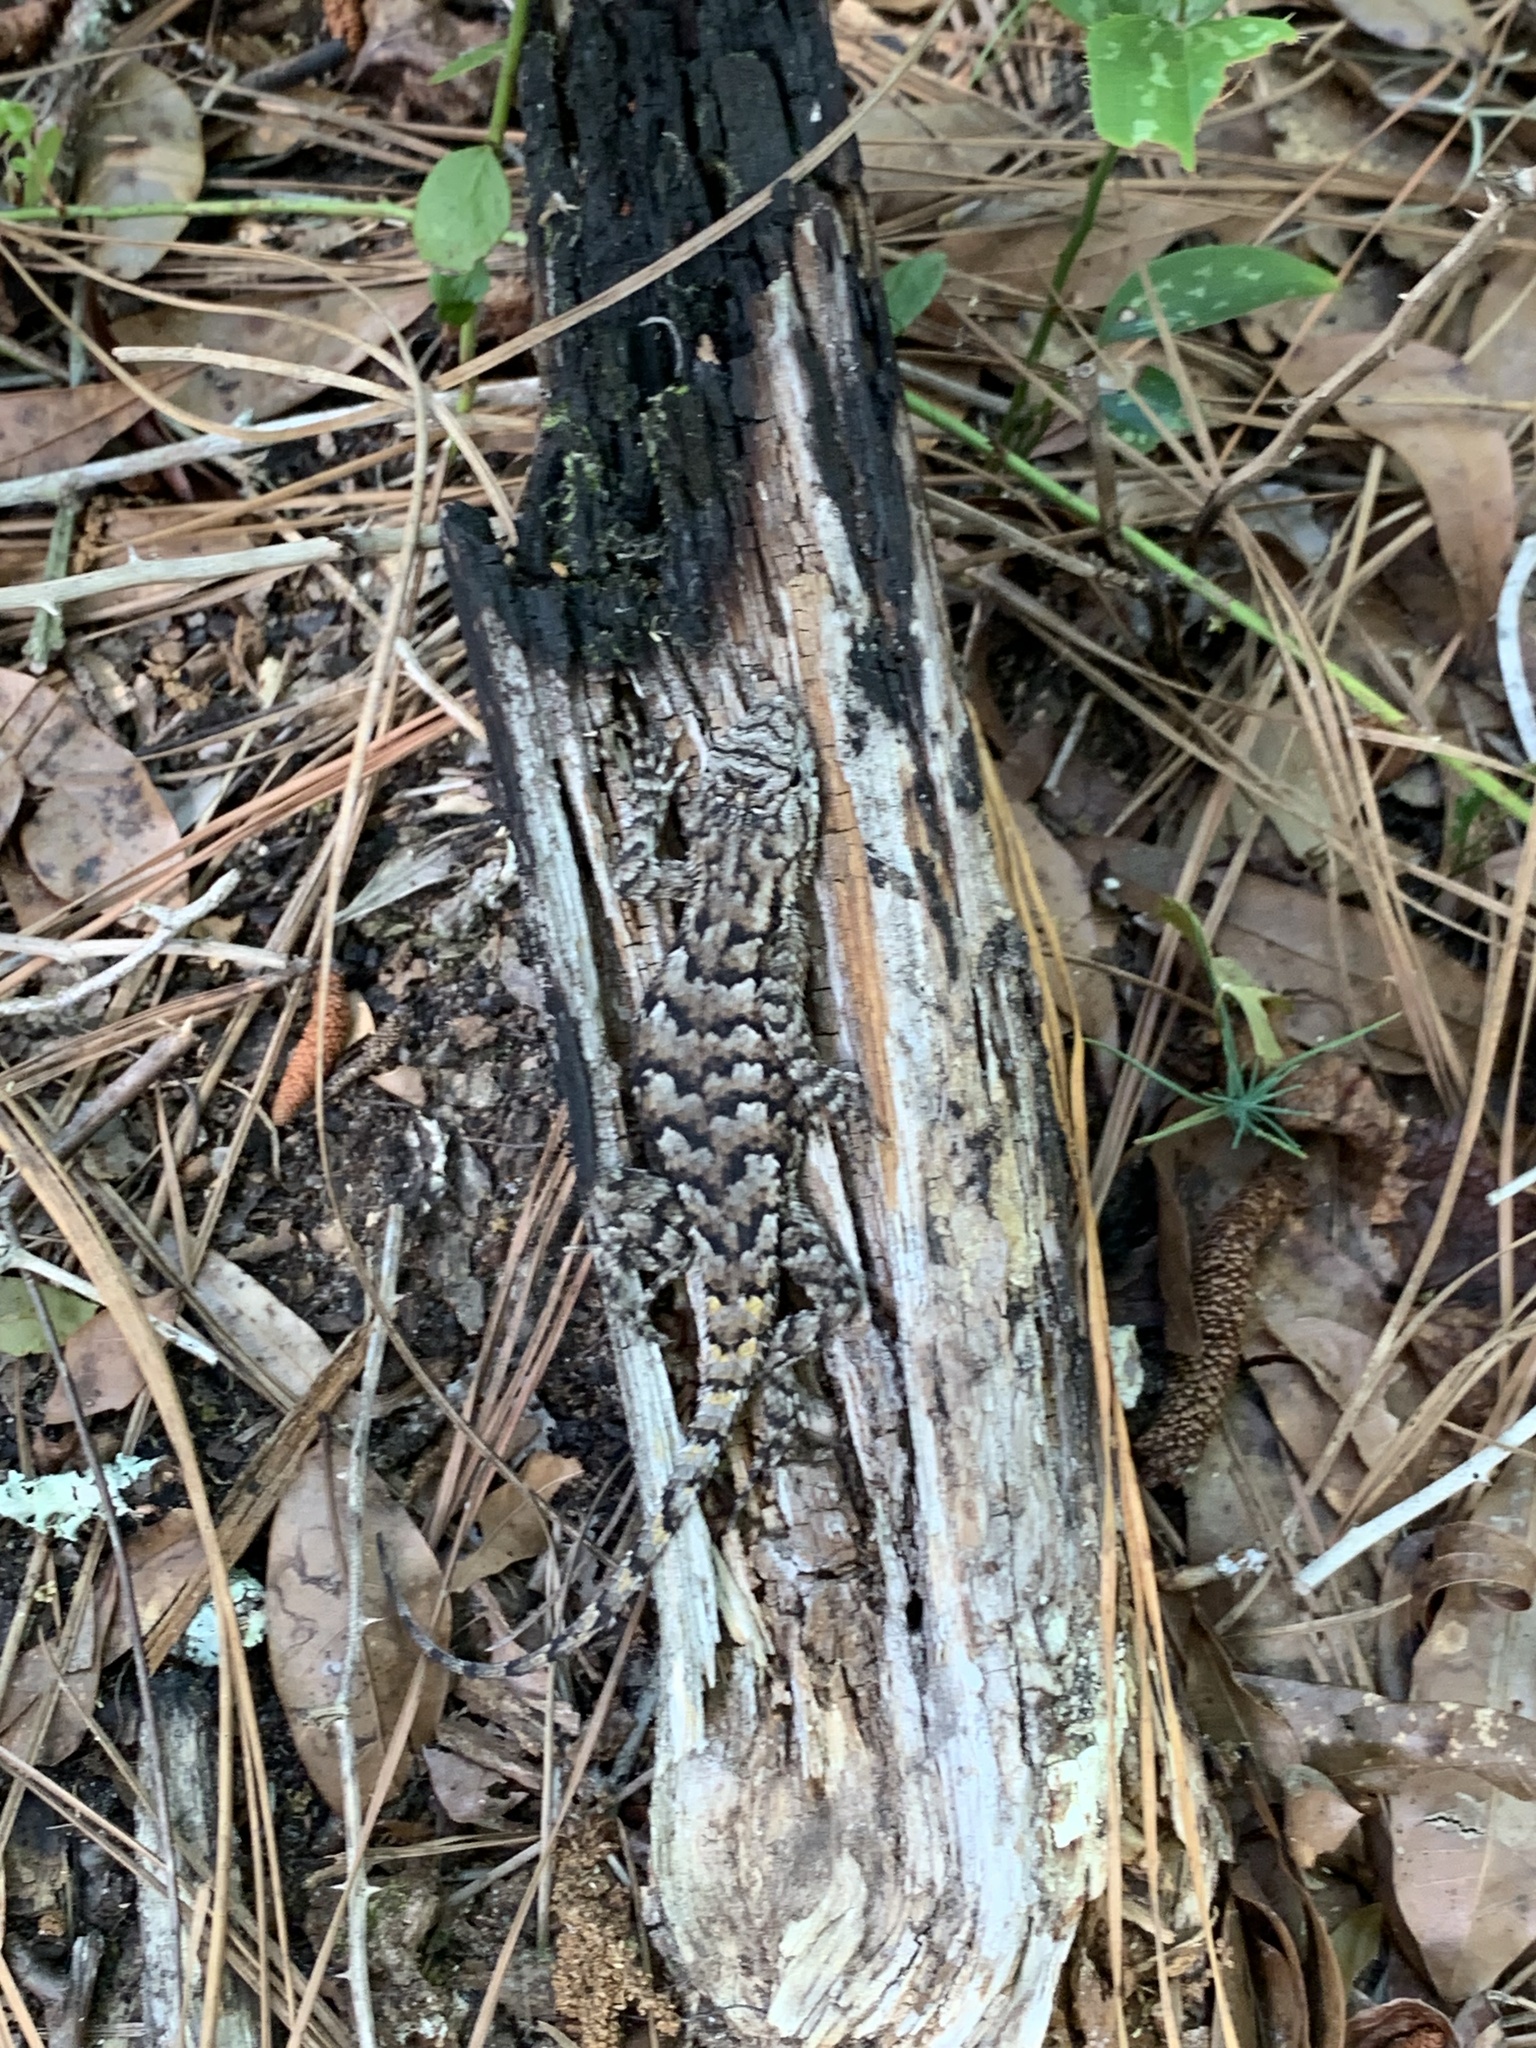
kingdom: Animalia
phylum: Chordata
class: Squamata
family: Phrynosomatidae
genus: Sceloporus
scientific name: Sceloporus undulatus
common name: Eastern fence lizard
